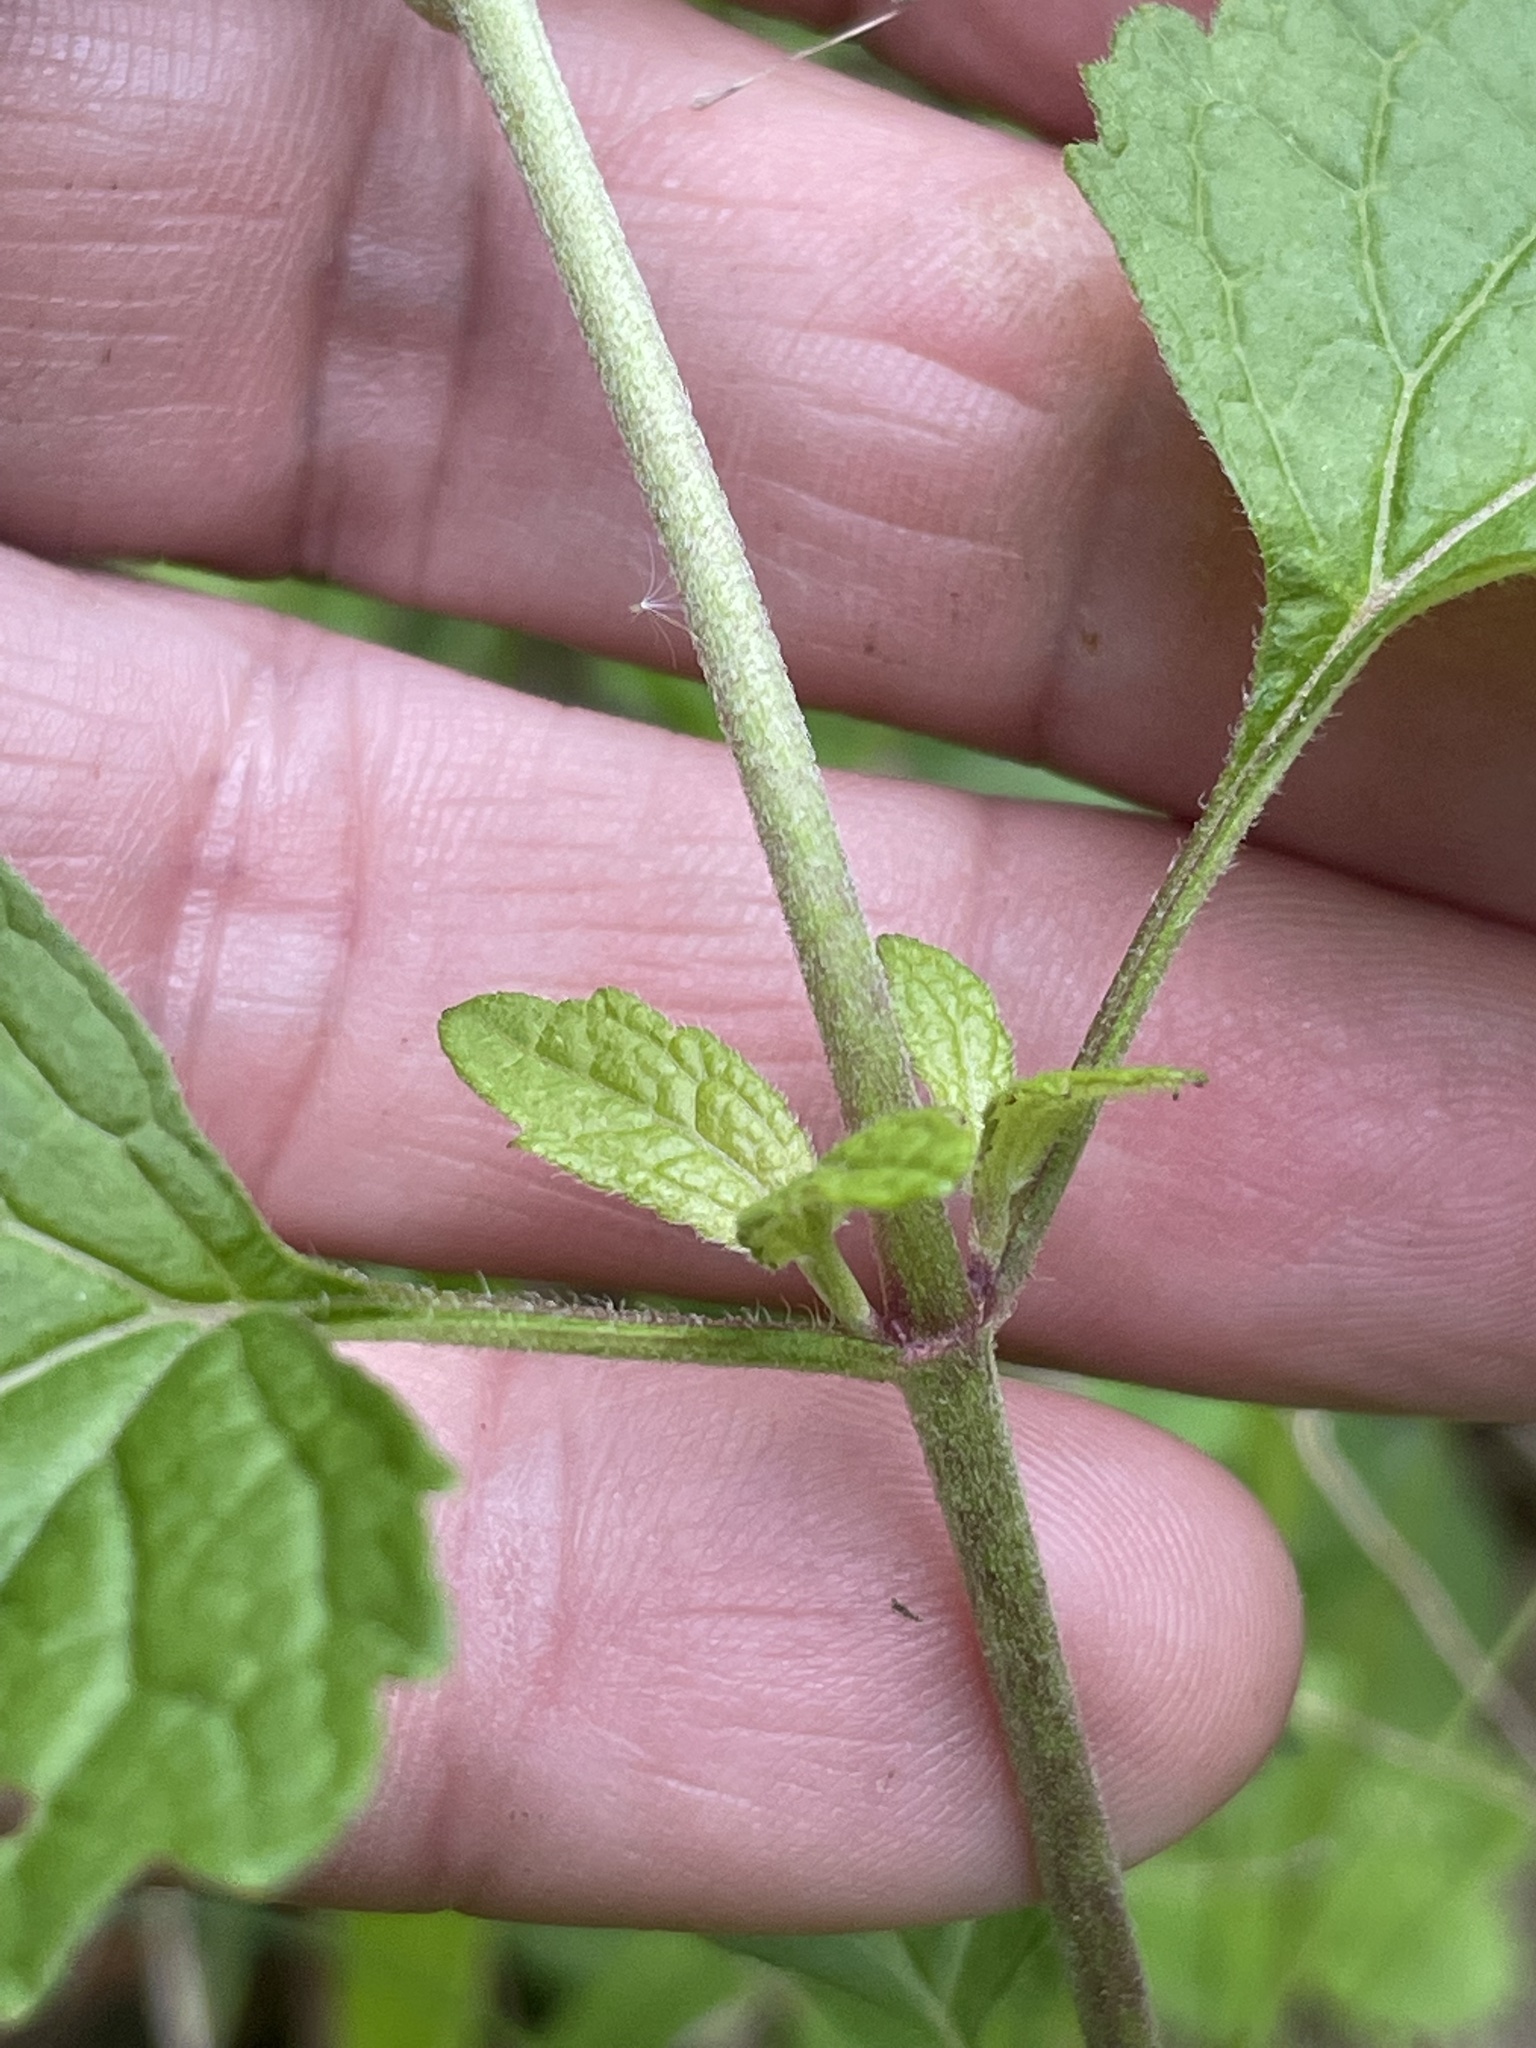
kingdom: Plantae
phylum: Tracheophyta
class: Magnoliopsida
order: Asterales
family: Asteraceae
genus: Conoclinium
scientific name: Conoclinium coelestinum
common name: Blue mistflower
